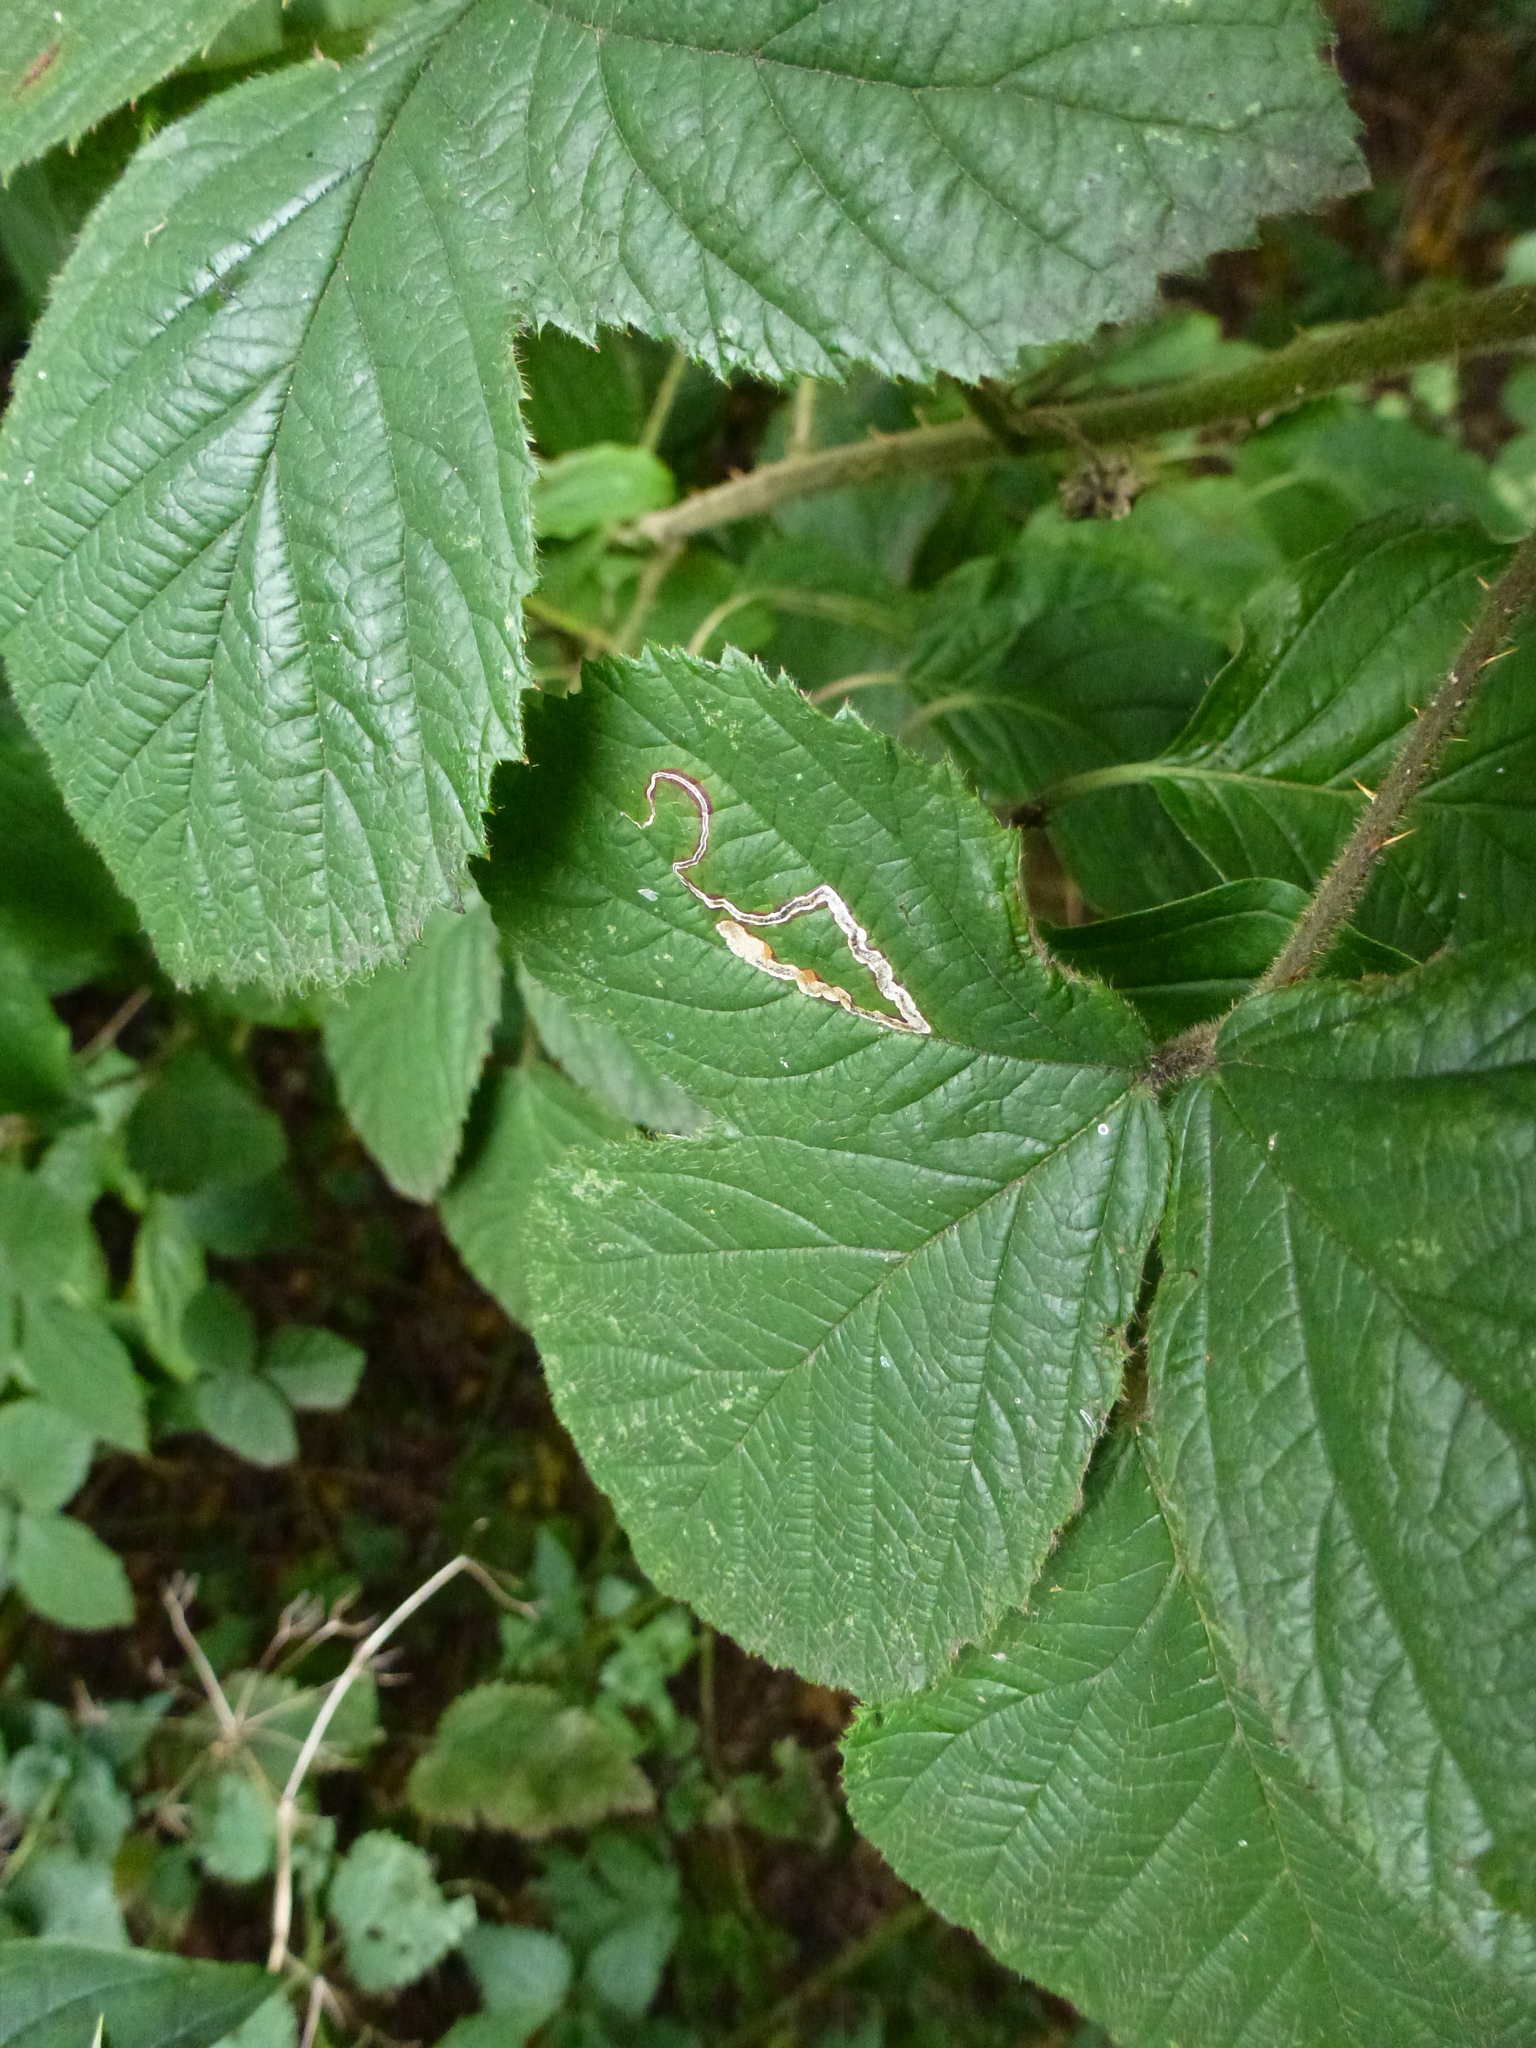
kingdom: Animalia
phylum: Arthropoda
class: Insecta
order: Lepidoptera
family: Nepticulidae
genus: Stigmella
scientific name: Stigmella aurella
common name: Golden pigmy
